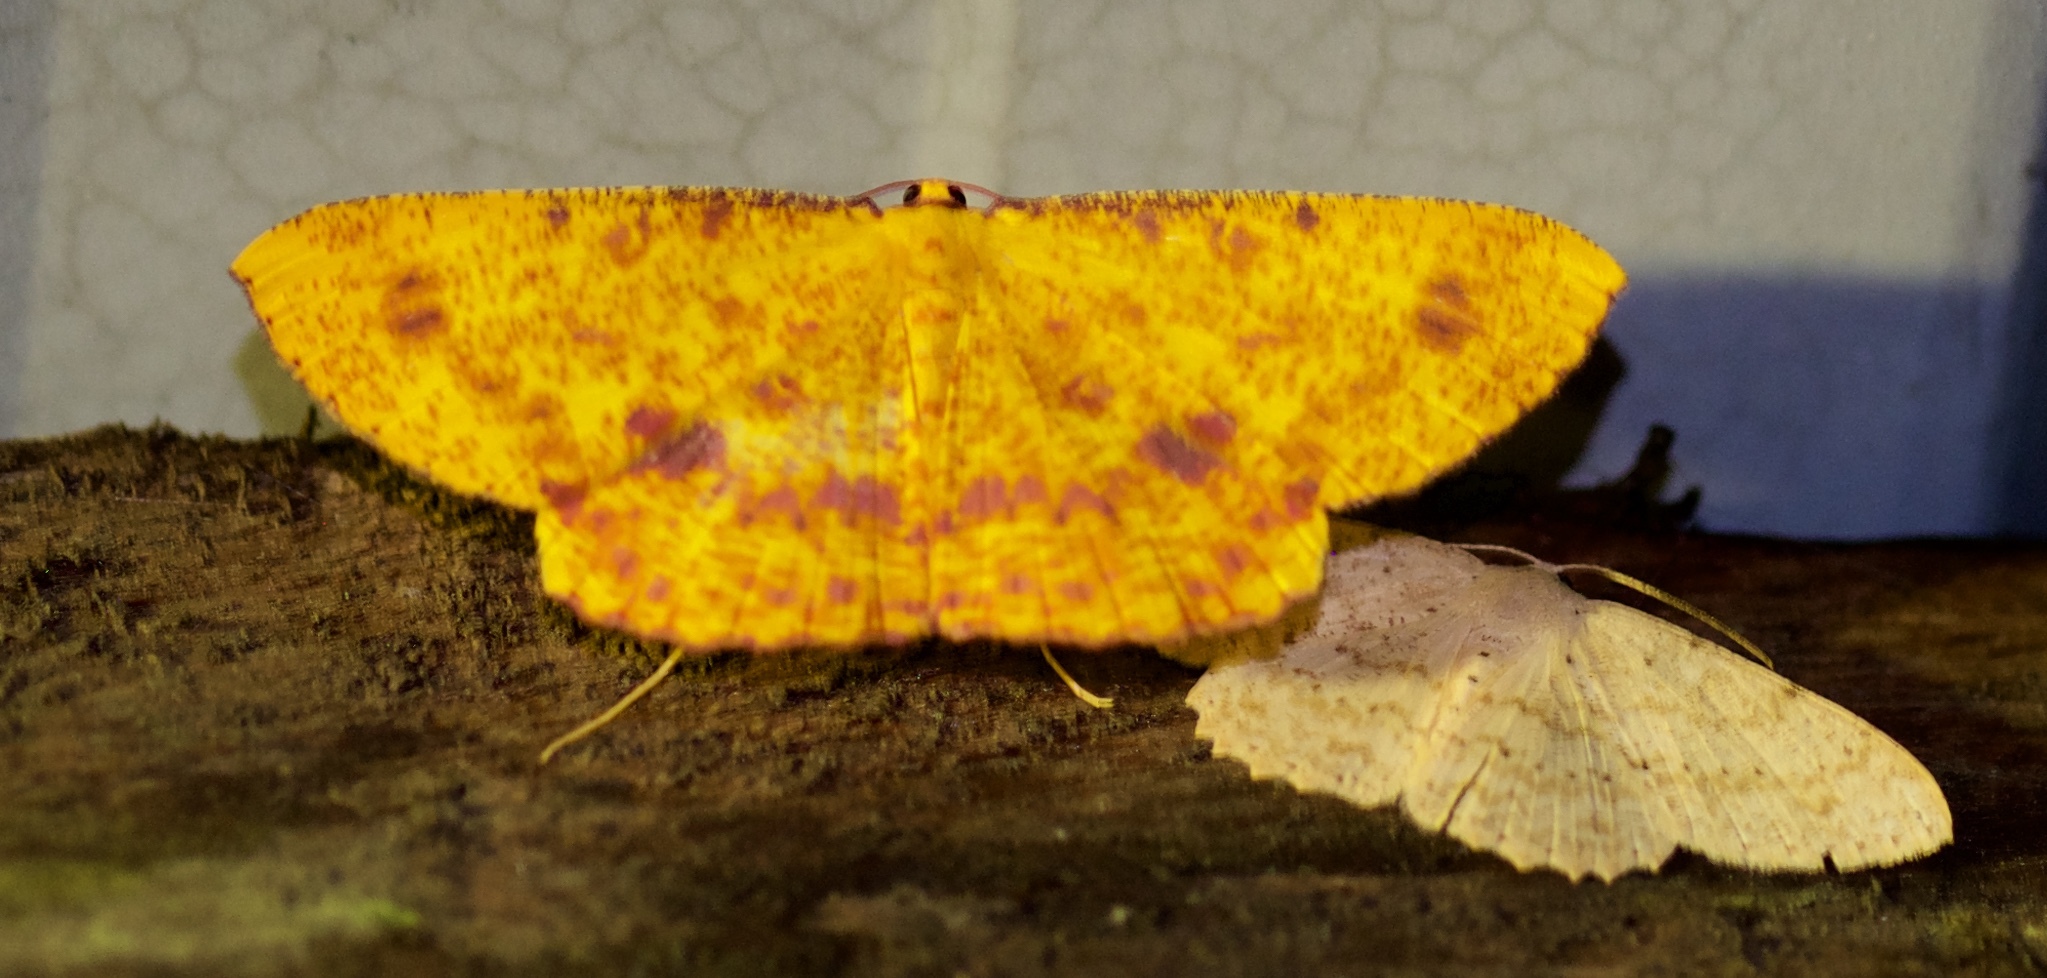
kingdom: Animalia
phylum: Arthropoda
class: Insecta
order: Lepidoptera
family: Geometridae
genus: Eumelea
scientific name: Eumelea ludovicata
